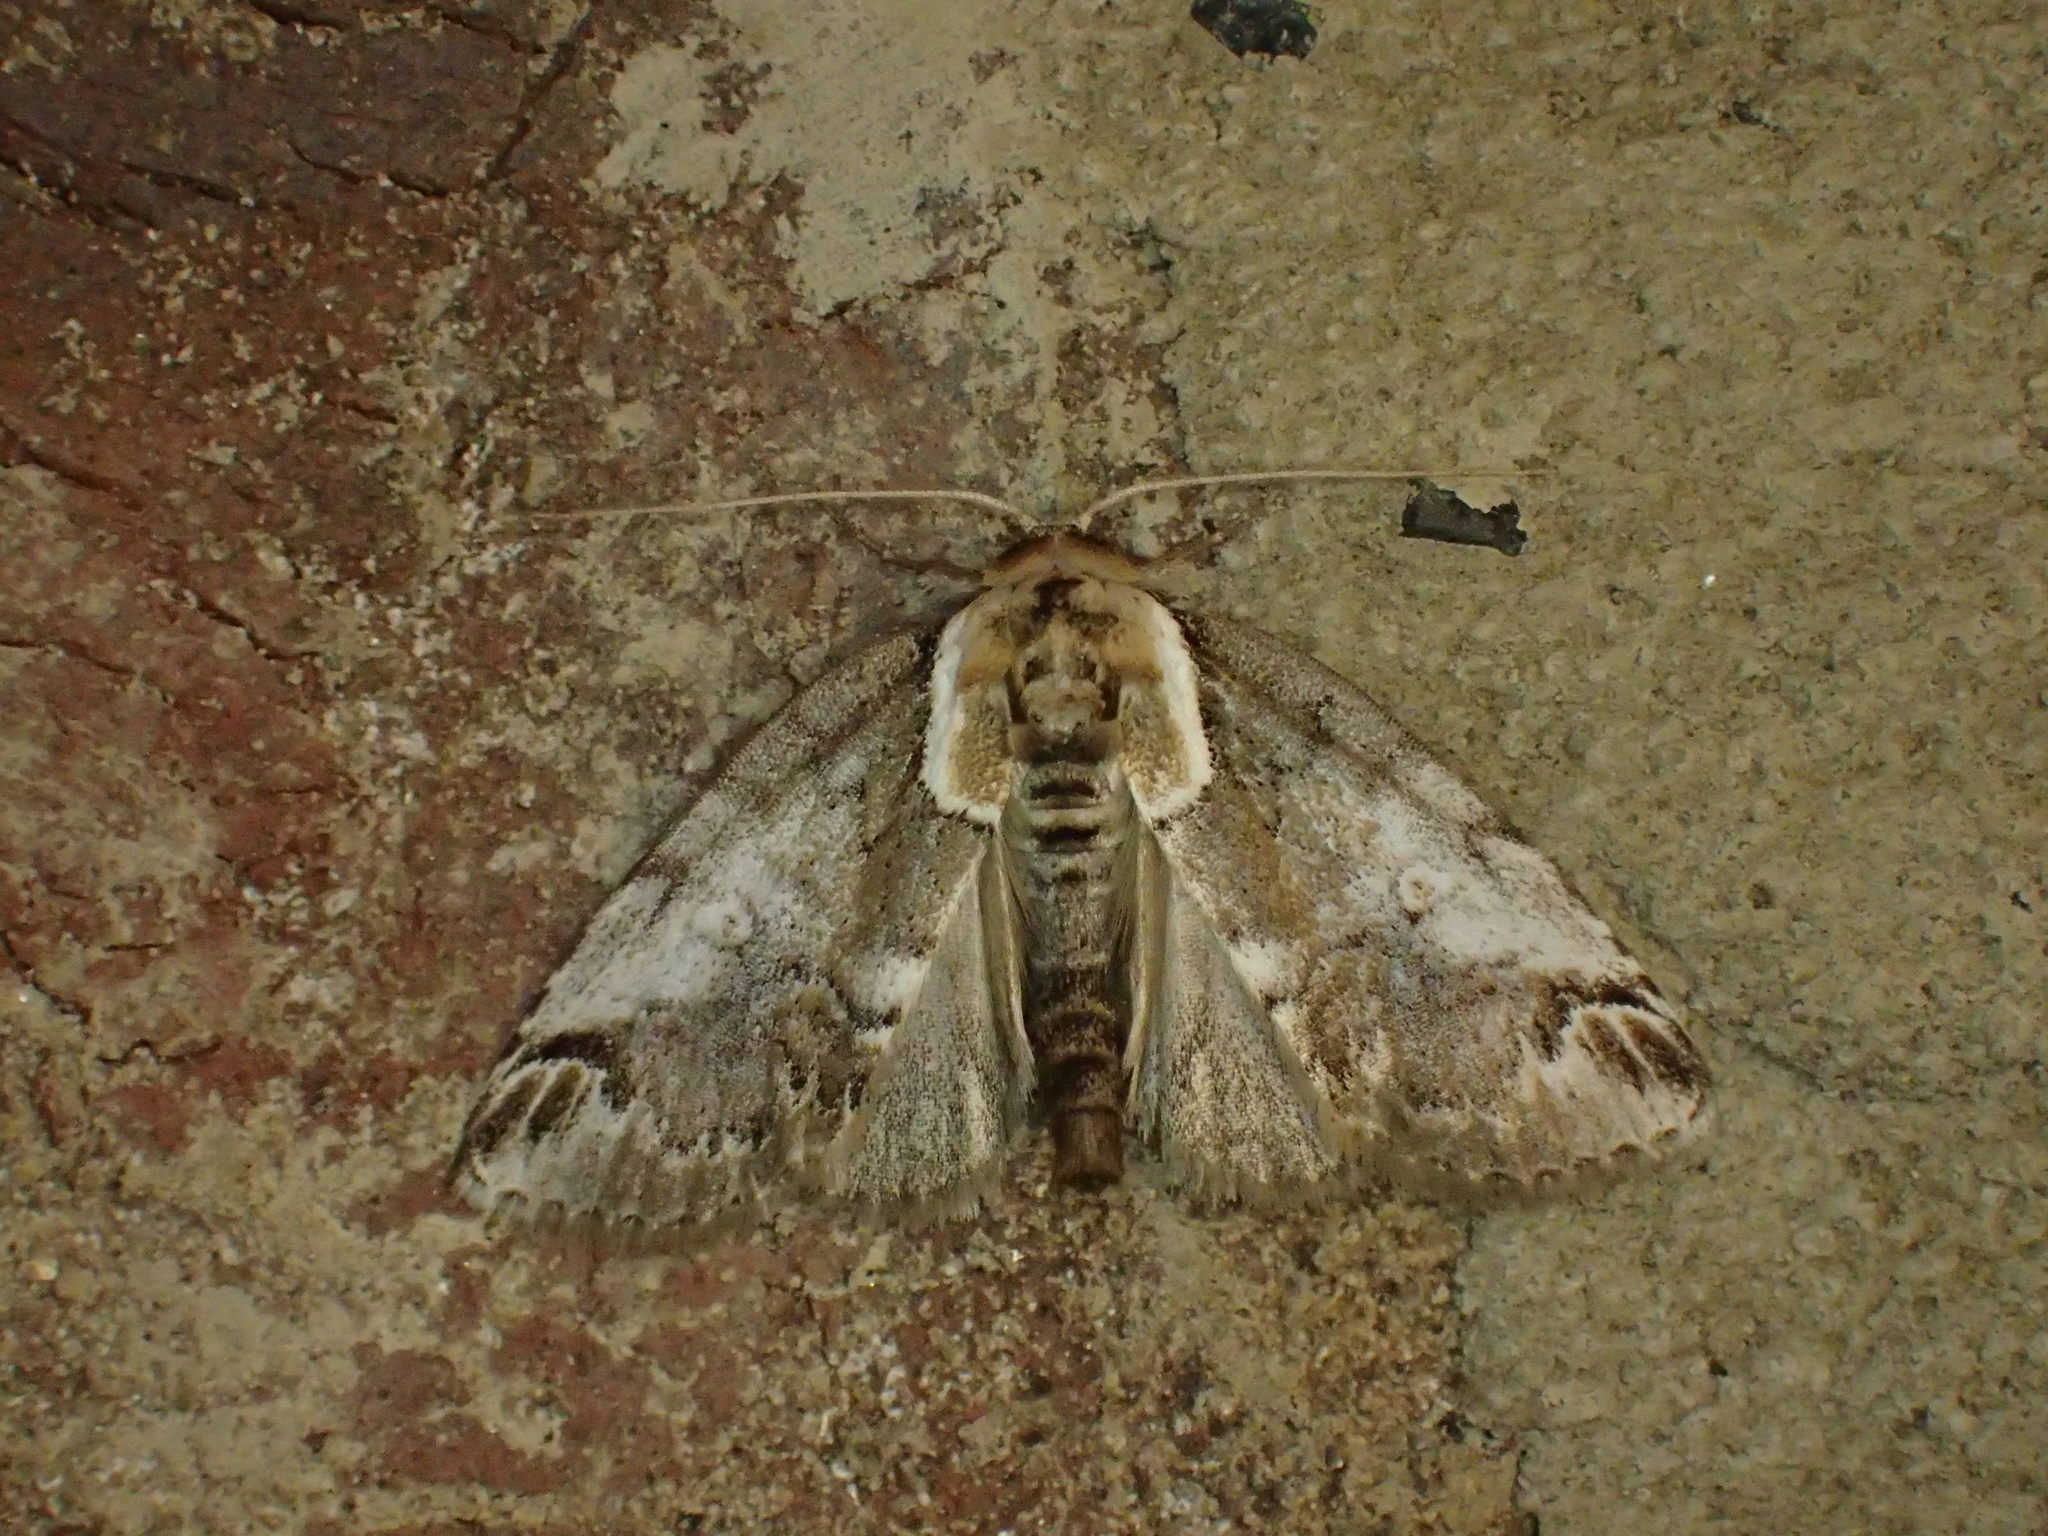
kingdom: Animalia
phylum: Arthropoda
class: Insecta
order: Lepidoptera
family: Nolidae
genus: Baileya
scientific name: Baileya ophthalmica
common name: Eyed baileya moth
